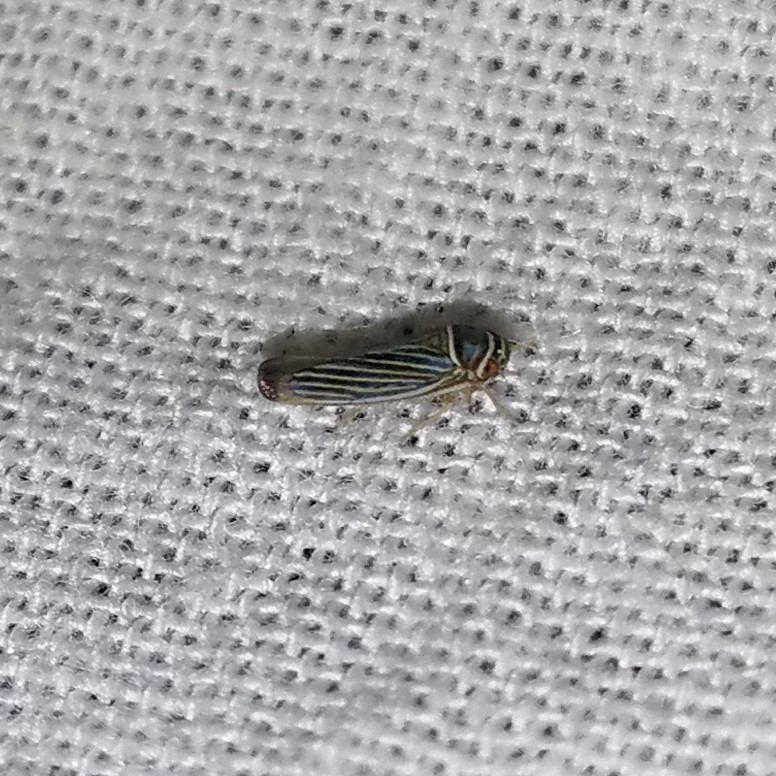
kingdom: Animalia
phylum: Arthropoda
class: Insecta
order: Hemiptera
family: Cicadellidae
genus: Tylozygus
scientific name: Tylozygus bifidus
